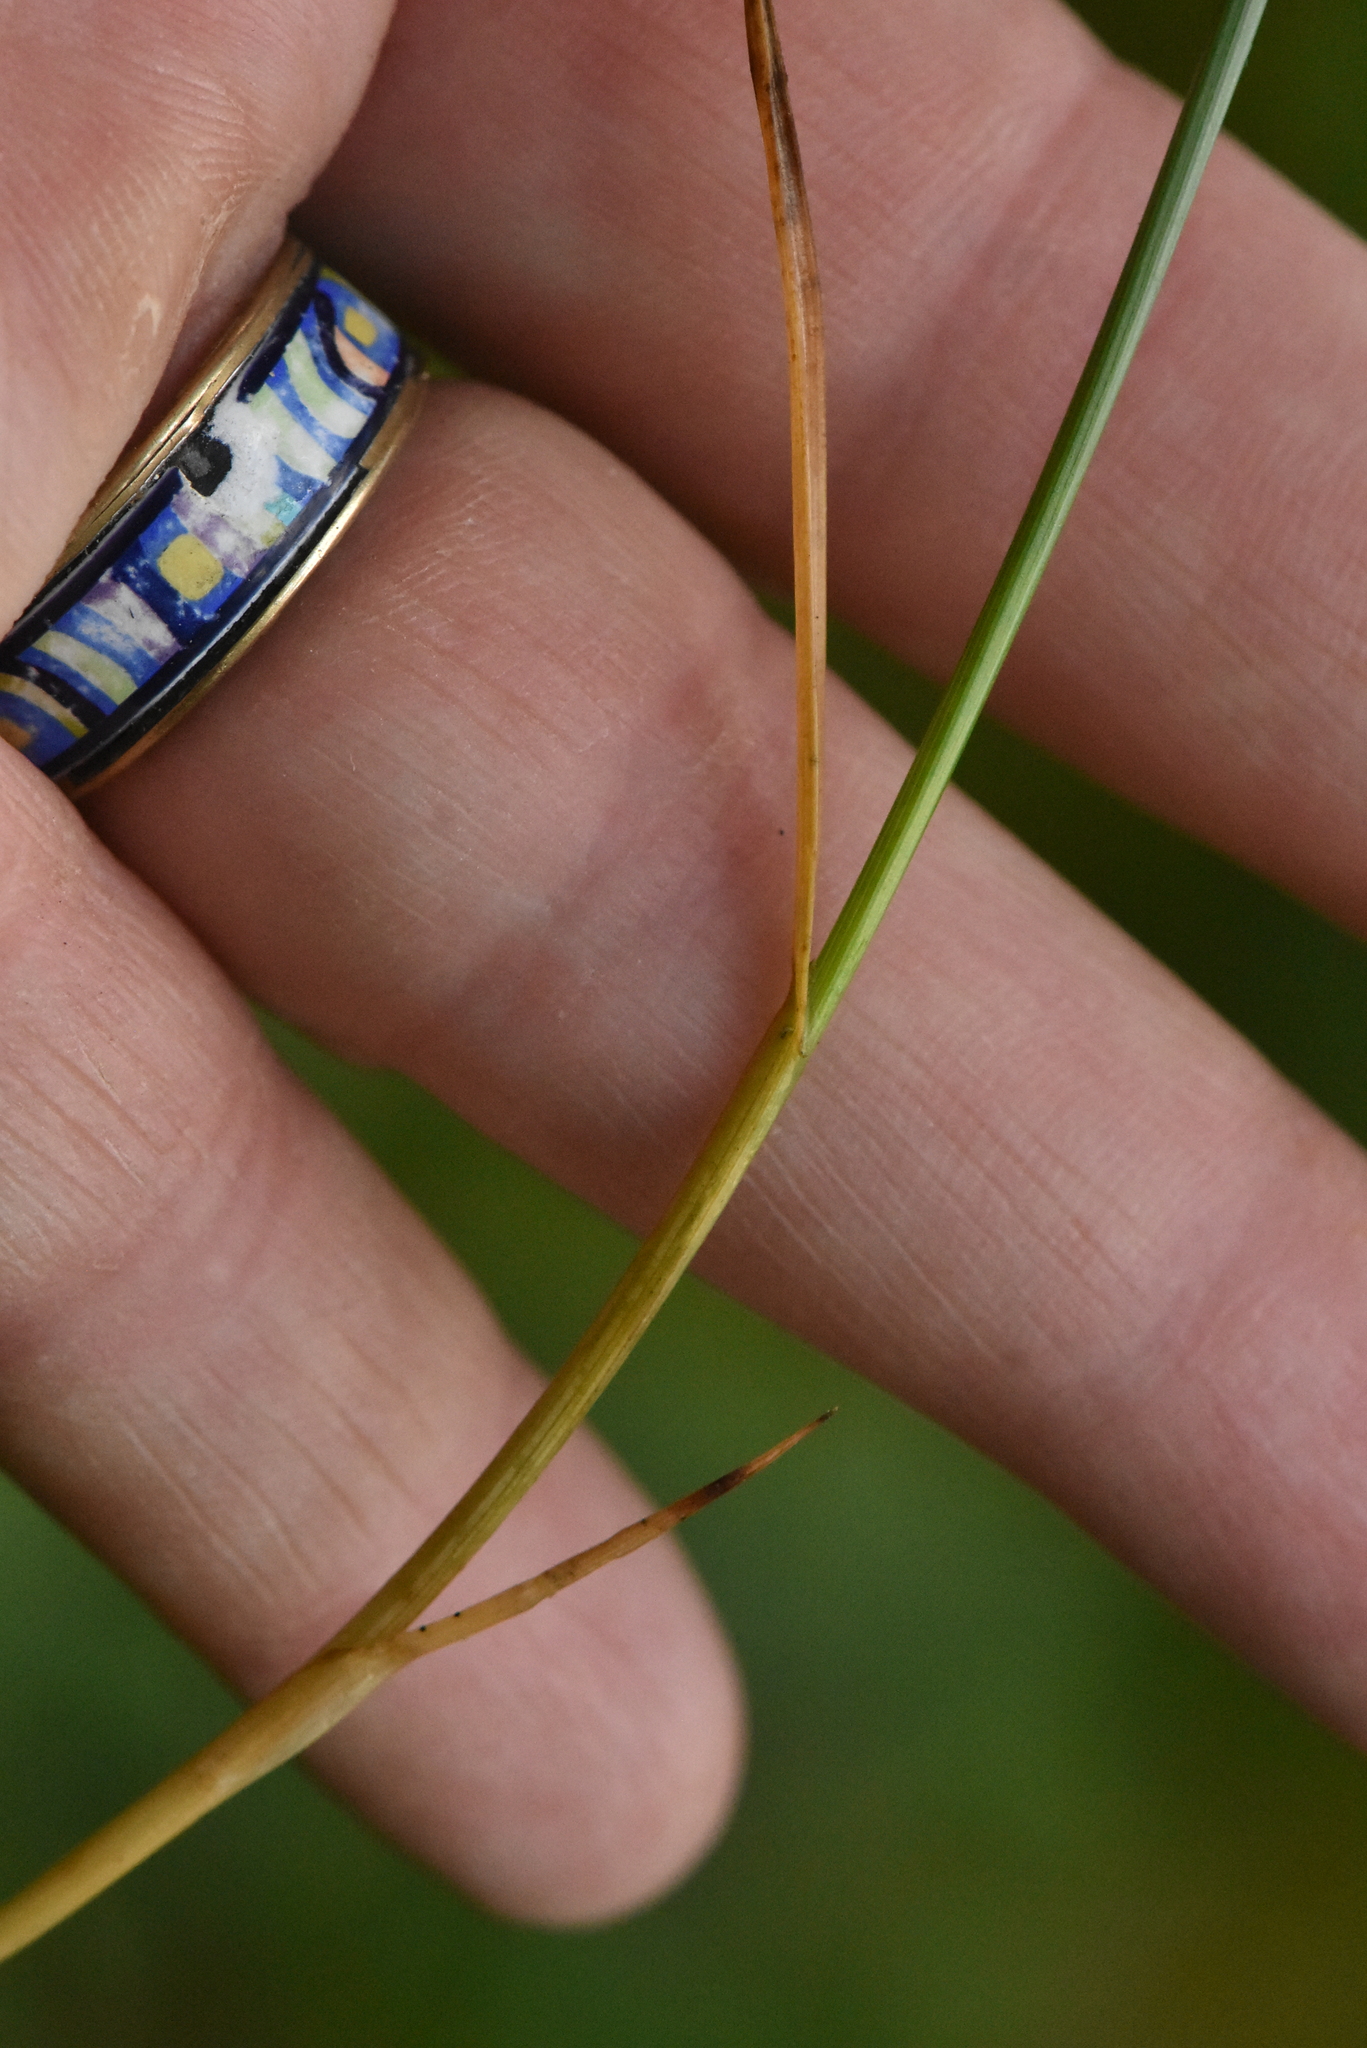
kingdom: Plantae
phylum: Tracheophyta
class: Liliopsida
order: Poales
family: Cyperaceae
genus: Carex
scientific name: Carex chordorrhiza
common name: String sedge
